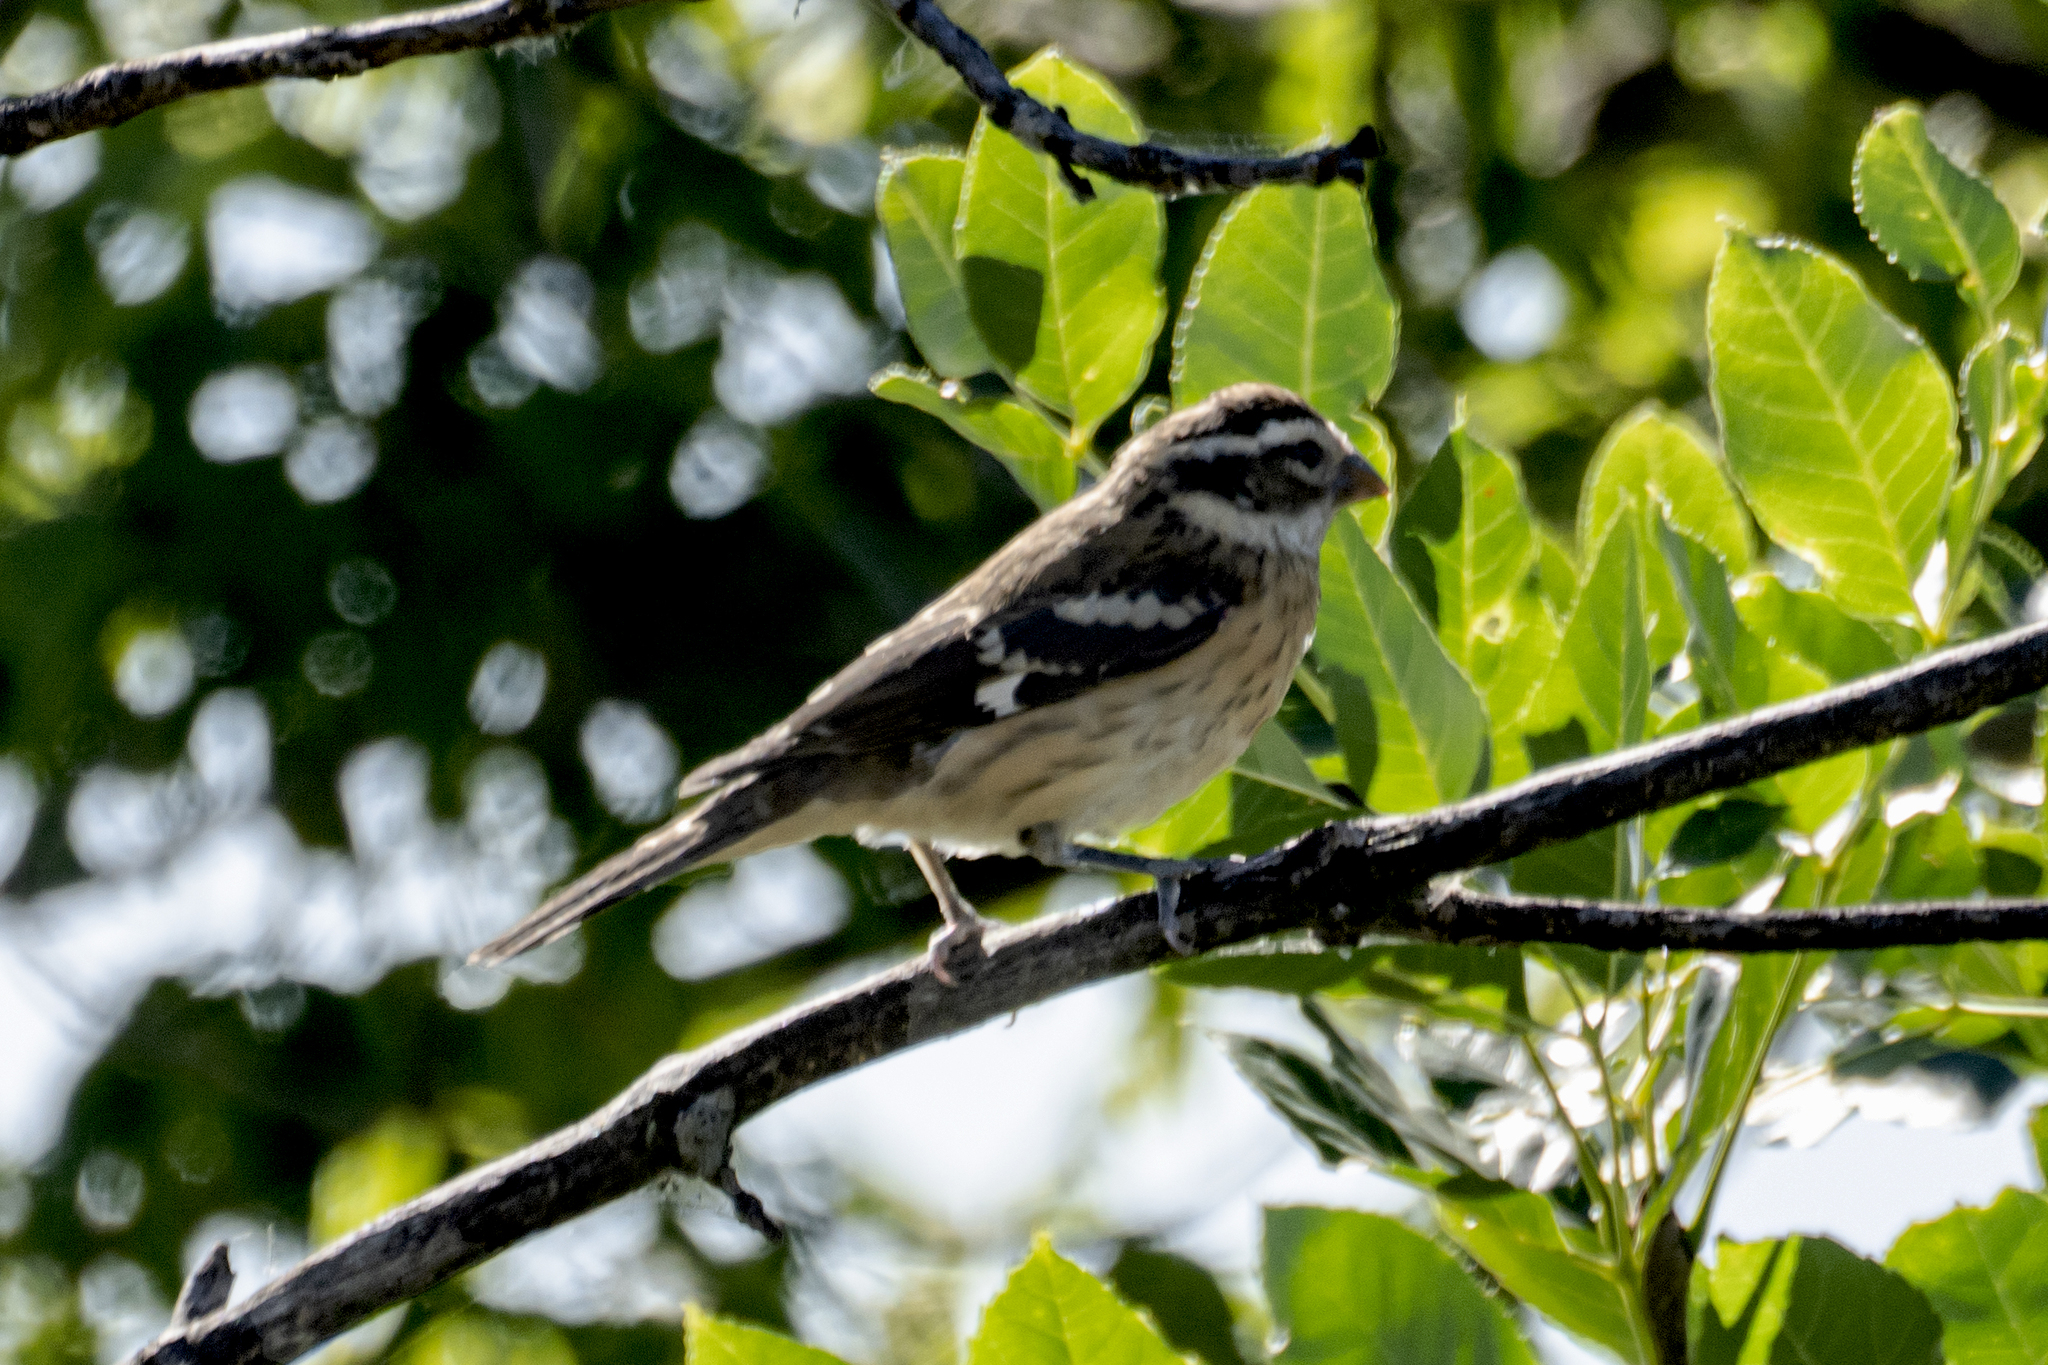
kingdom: Animalia
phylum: Chordata
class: Aves
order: Passeriformes
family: Cardinalidae
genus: Pheucticus
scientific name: Pheucticus ludovicianus
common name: Rose-breasted grosbeak
